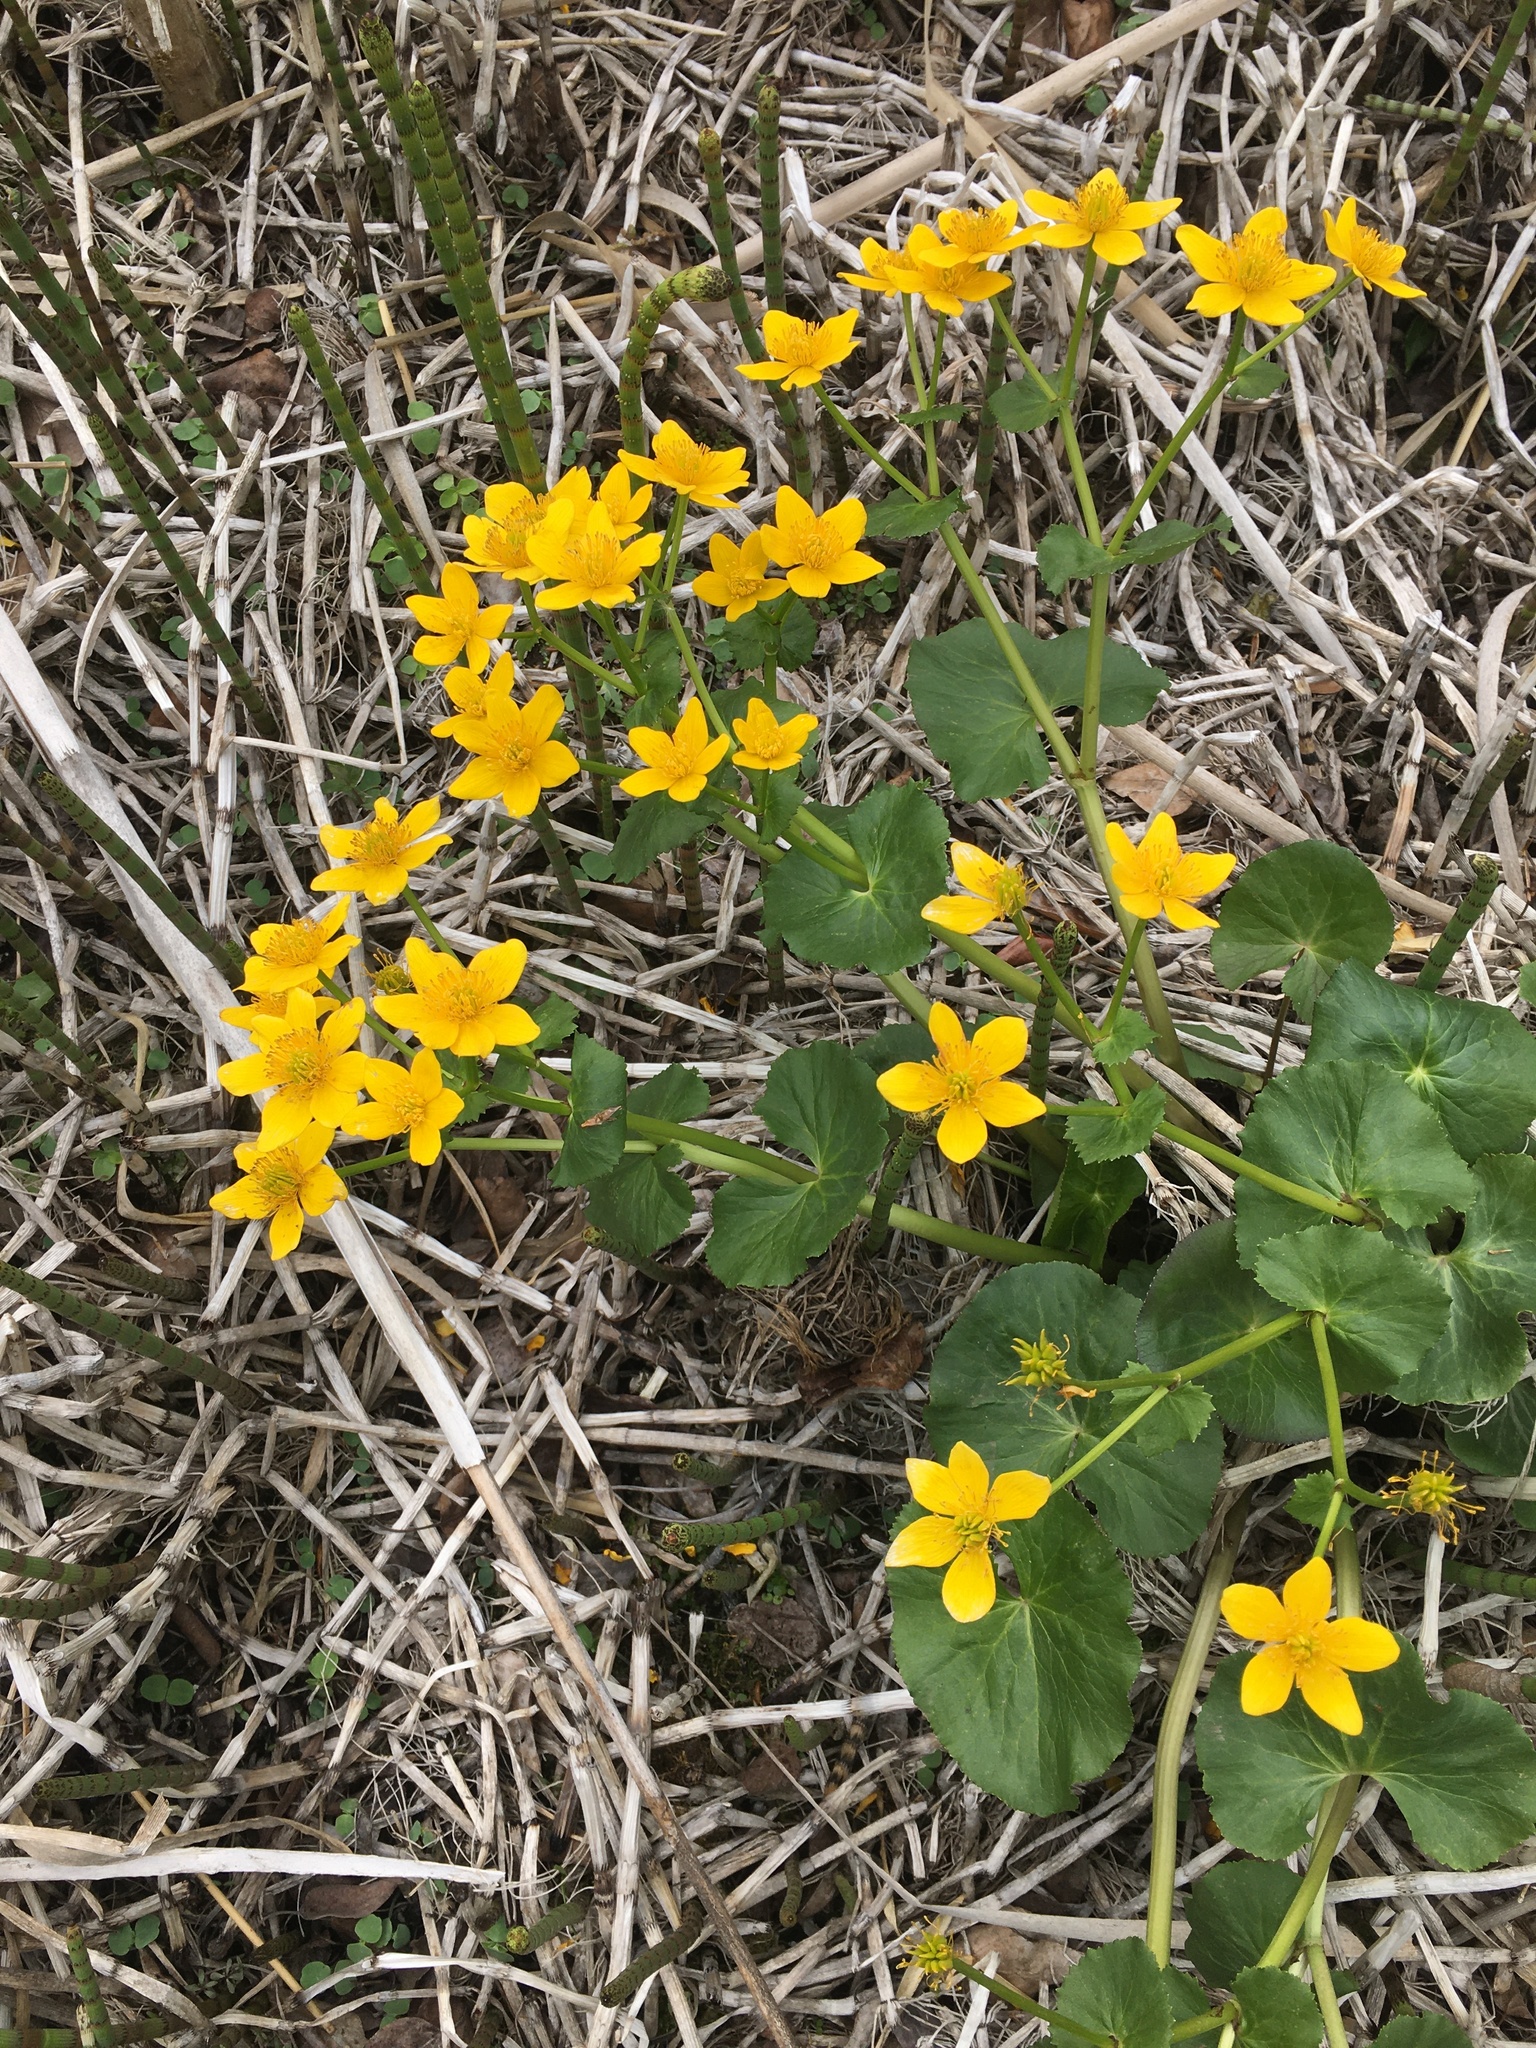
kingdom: Plantae
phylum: Tracheophyta
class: Magnoliopsida
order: Ranunculales
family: Ranunculaceae
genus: Caltha
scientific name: Caltha palustris
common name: Marsh marigold
